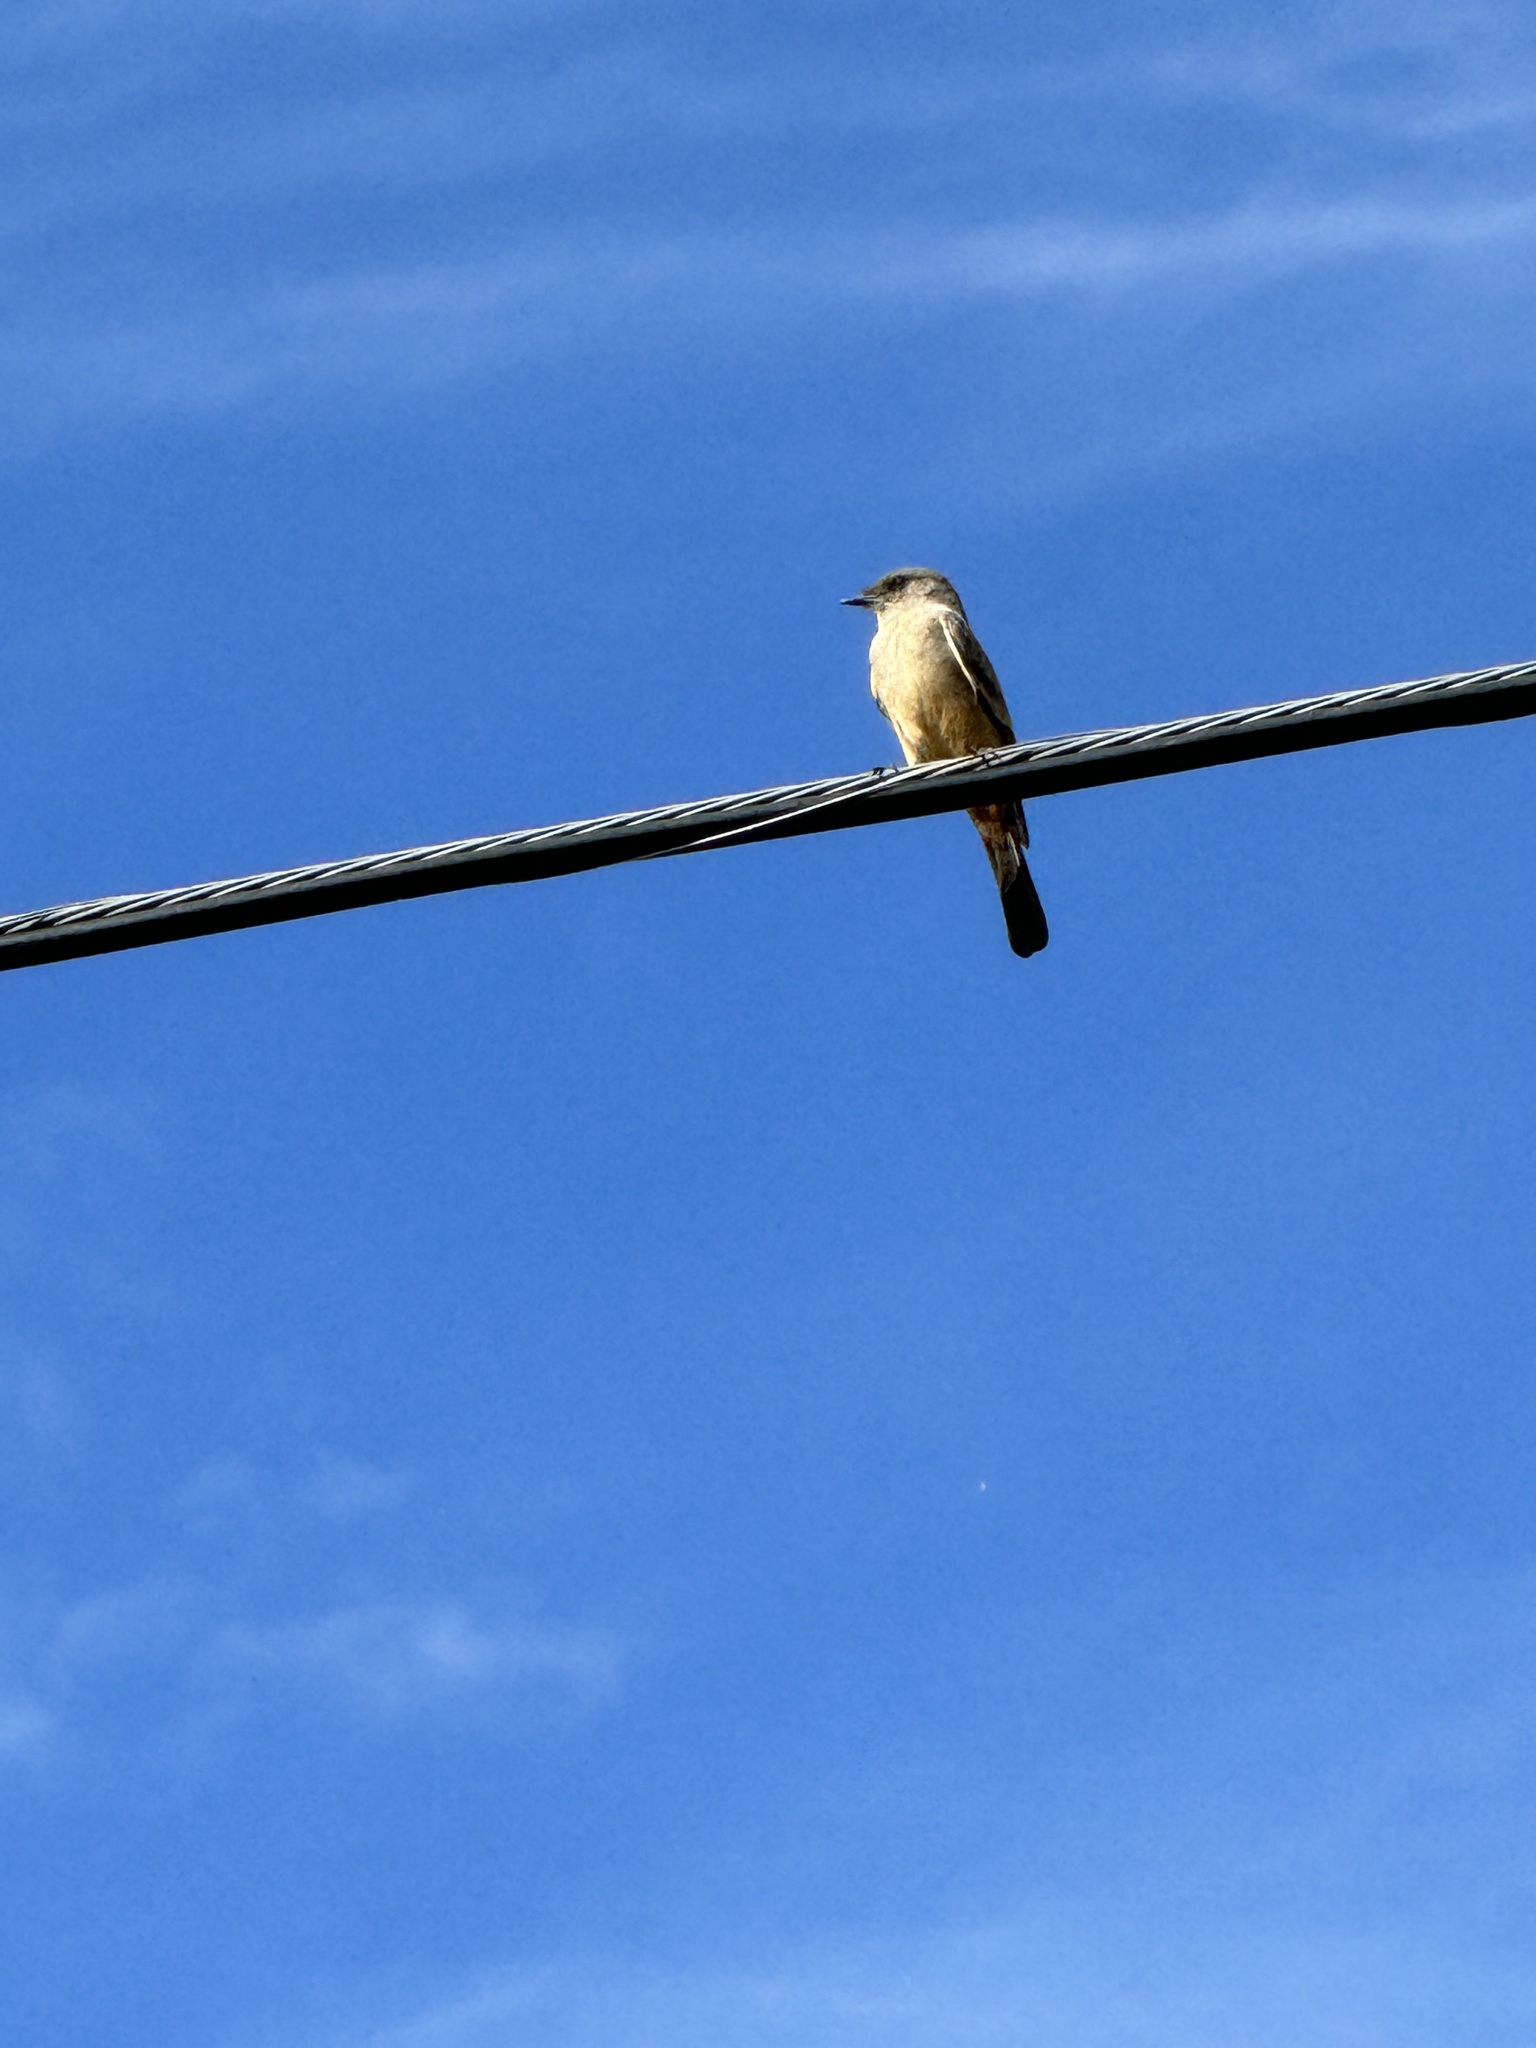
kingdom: Animalia
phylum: Chordata
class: Aves
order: Passeriformes
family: Tyrannidae
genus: Sayornis
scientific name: Sayornis saya
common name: Say's phoebe
